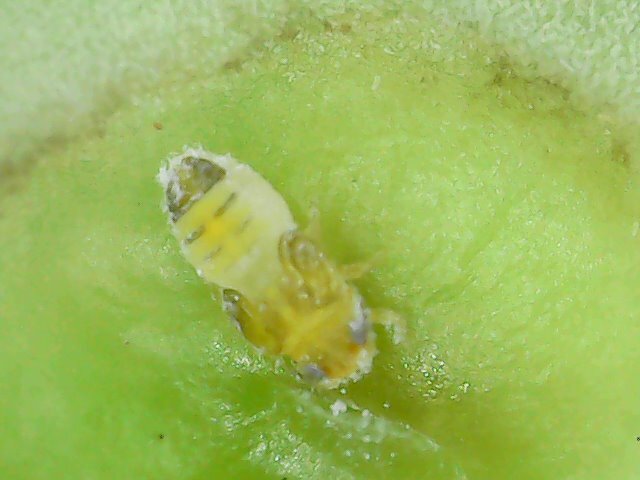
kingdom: Animalia
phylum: Arthropoda
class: Insecta
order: Hemiptera
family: Phacopteronidae
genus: Pseudophacopteron
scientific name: Pseudophacopteron tuberculatum
